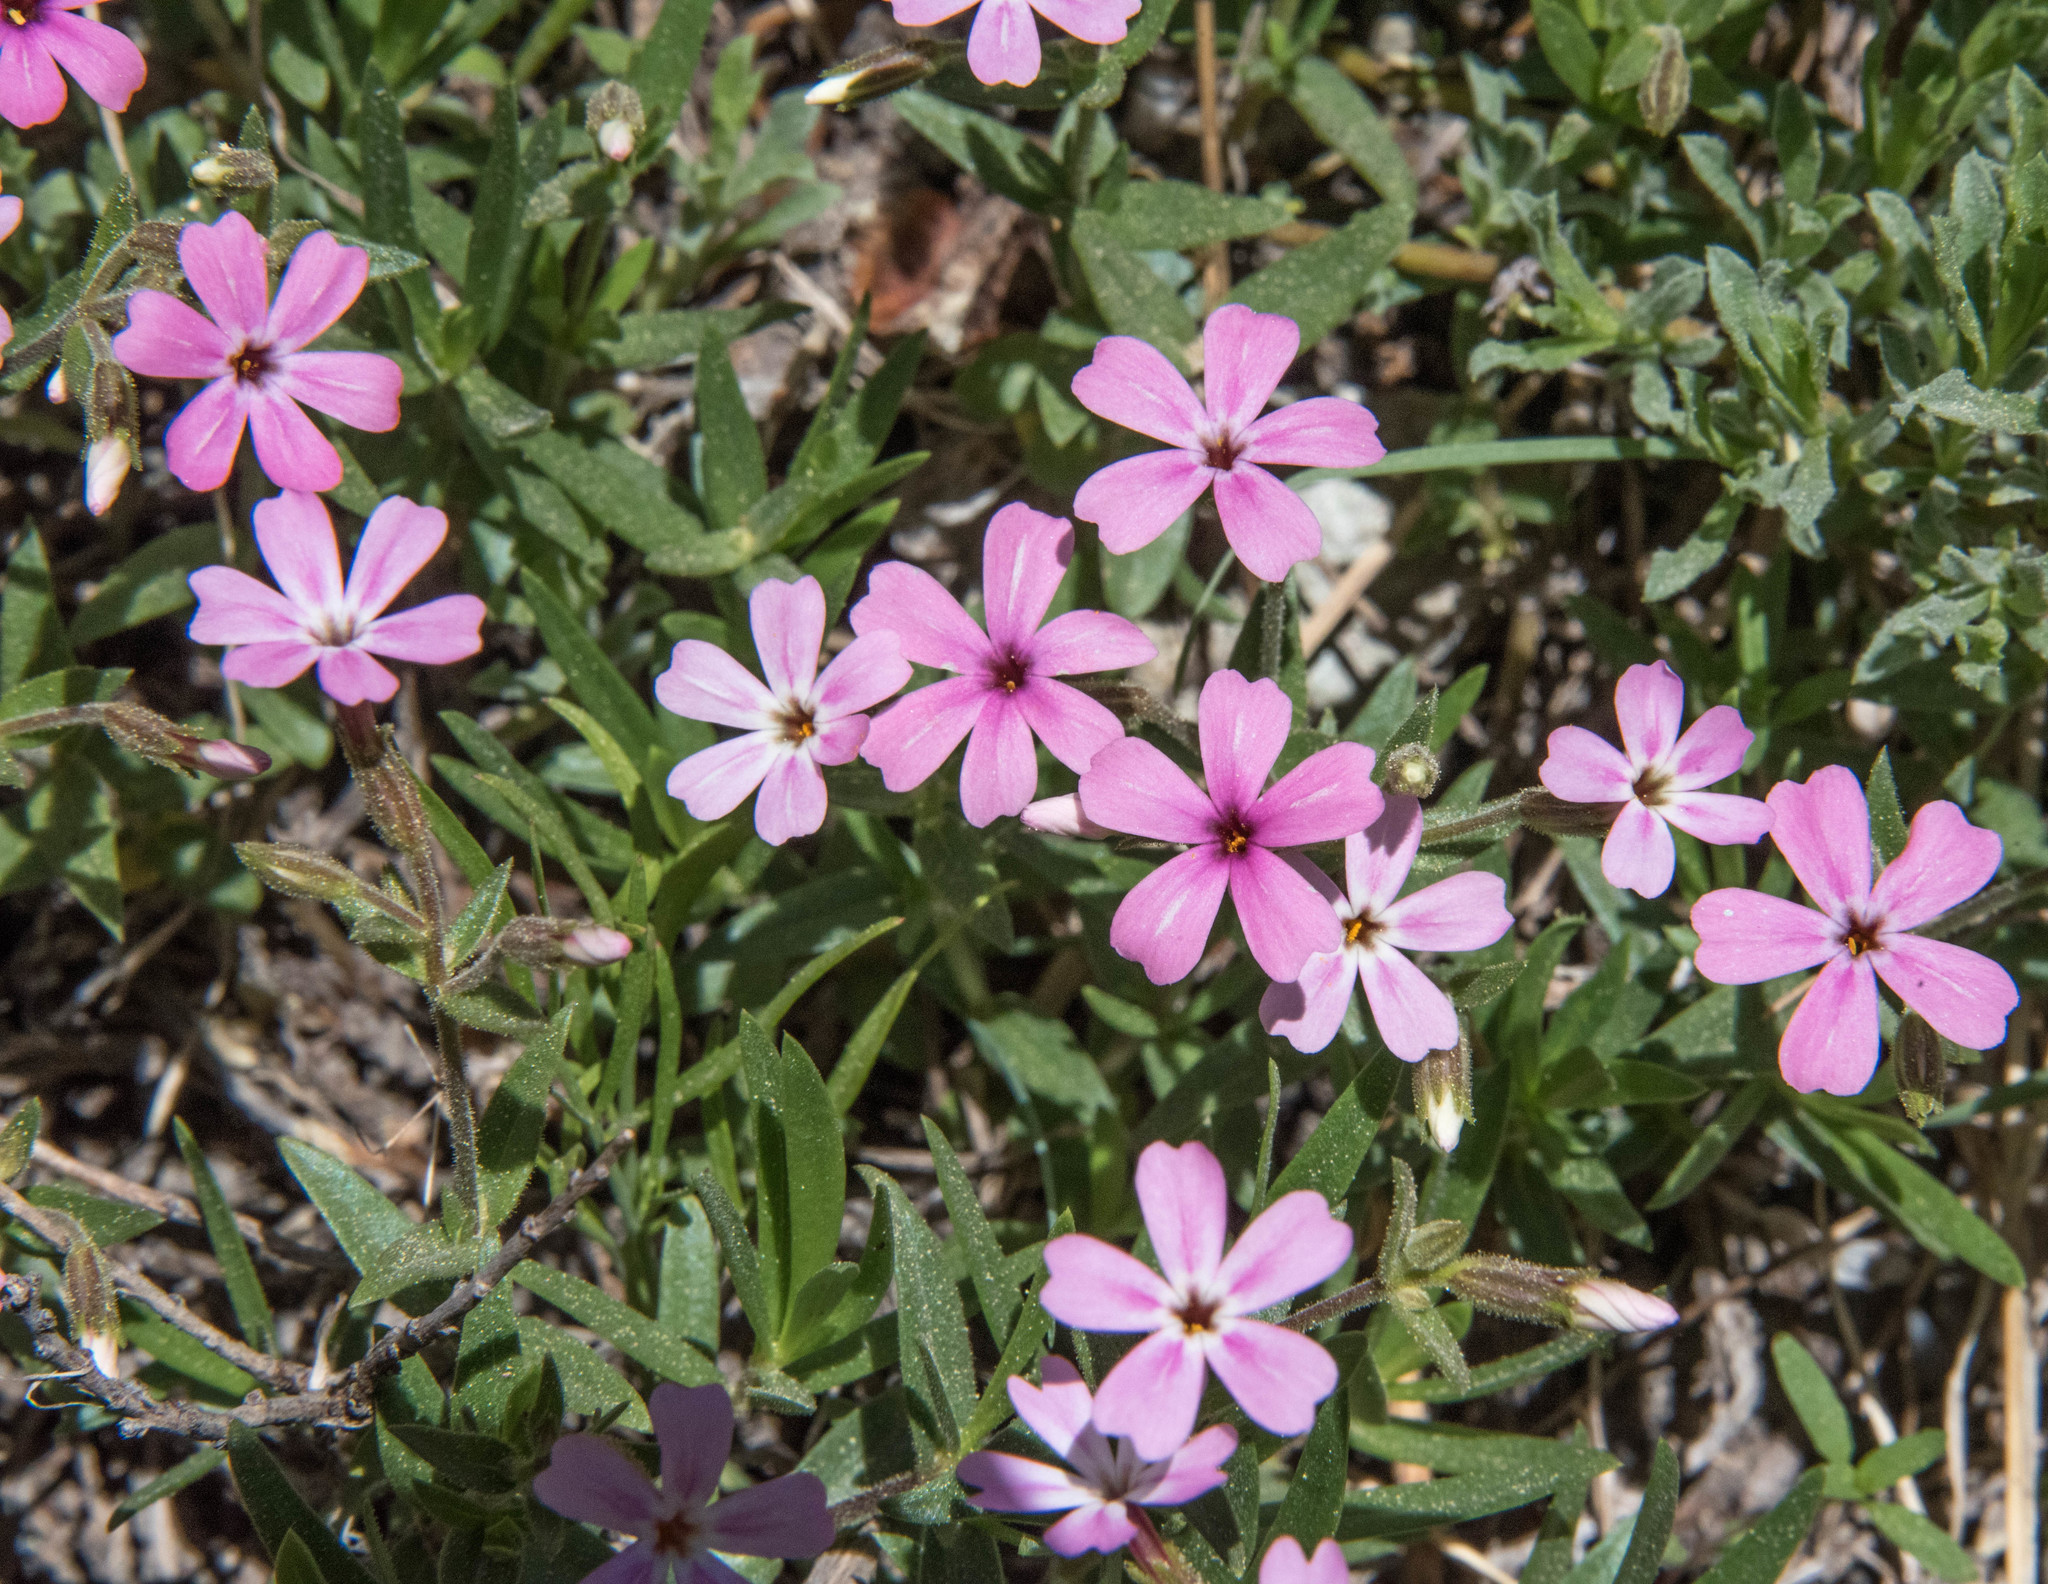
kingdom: Plantae
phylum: Tracheophyta
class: Magnoliopsida
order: Ericales
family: Polemoniaceae
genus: Phlox
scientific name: Phlox speciosa
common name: Bush phlox
